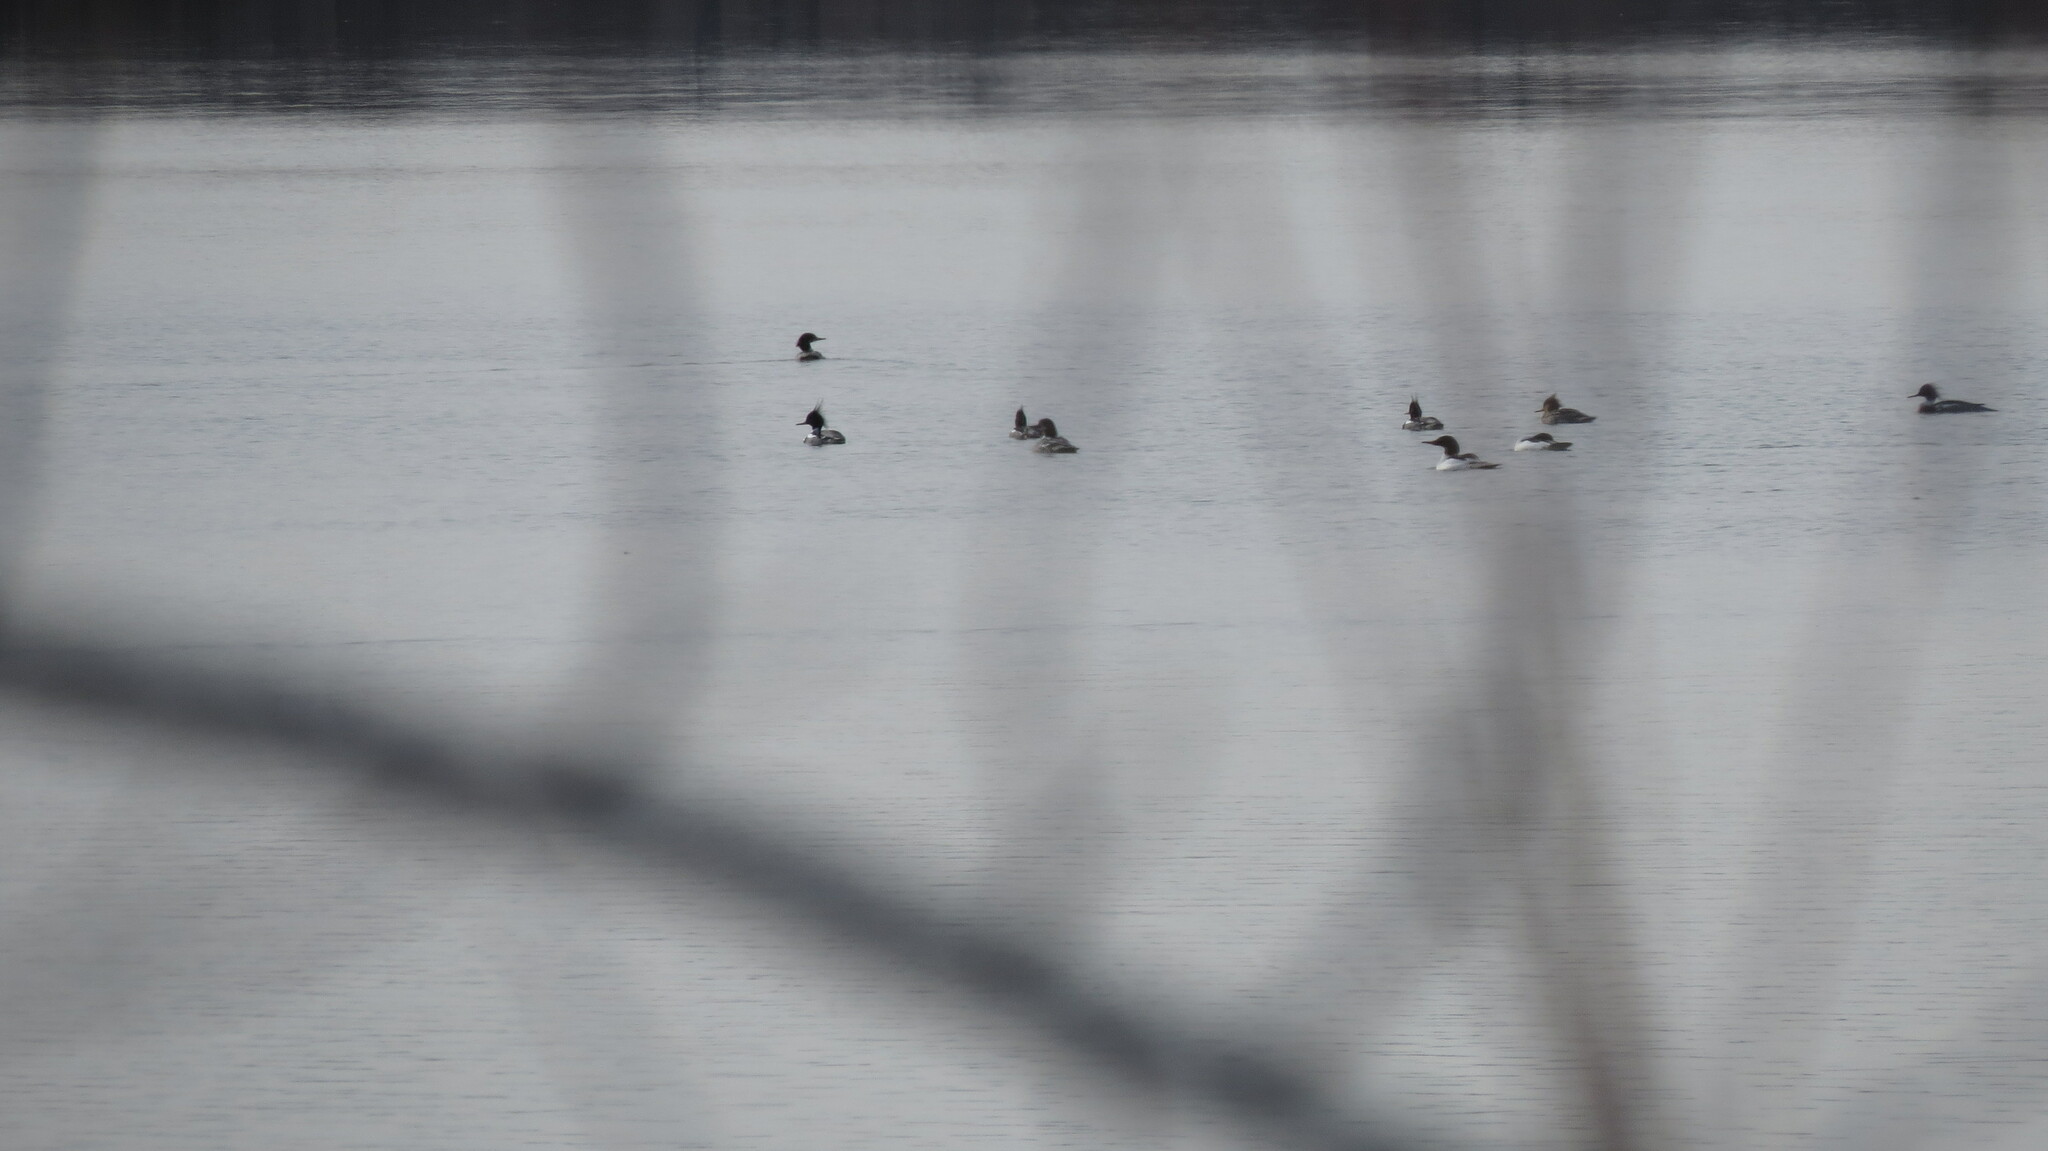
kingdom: Animalia
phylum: Chordata
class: Aves
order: Anseriformes
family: Anatidae
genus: Mergus
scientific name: Mergus serrator
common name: Red-breasted merganser
